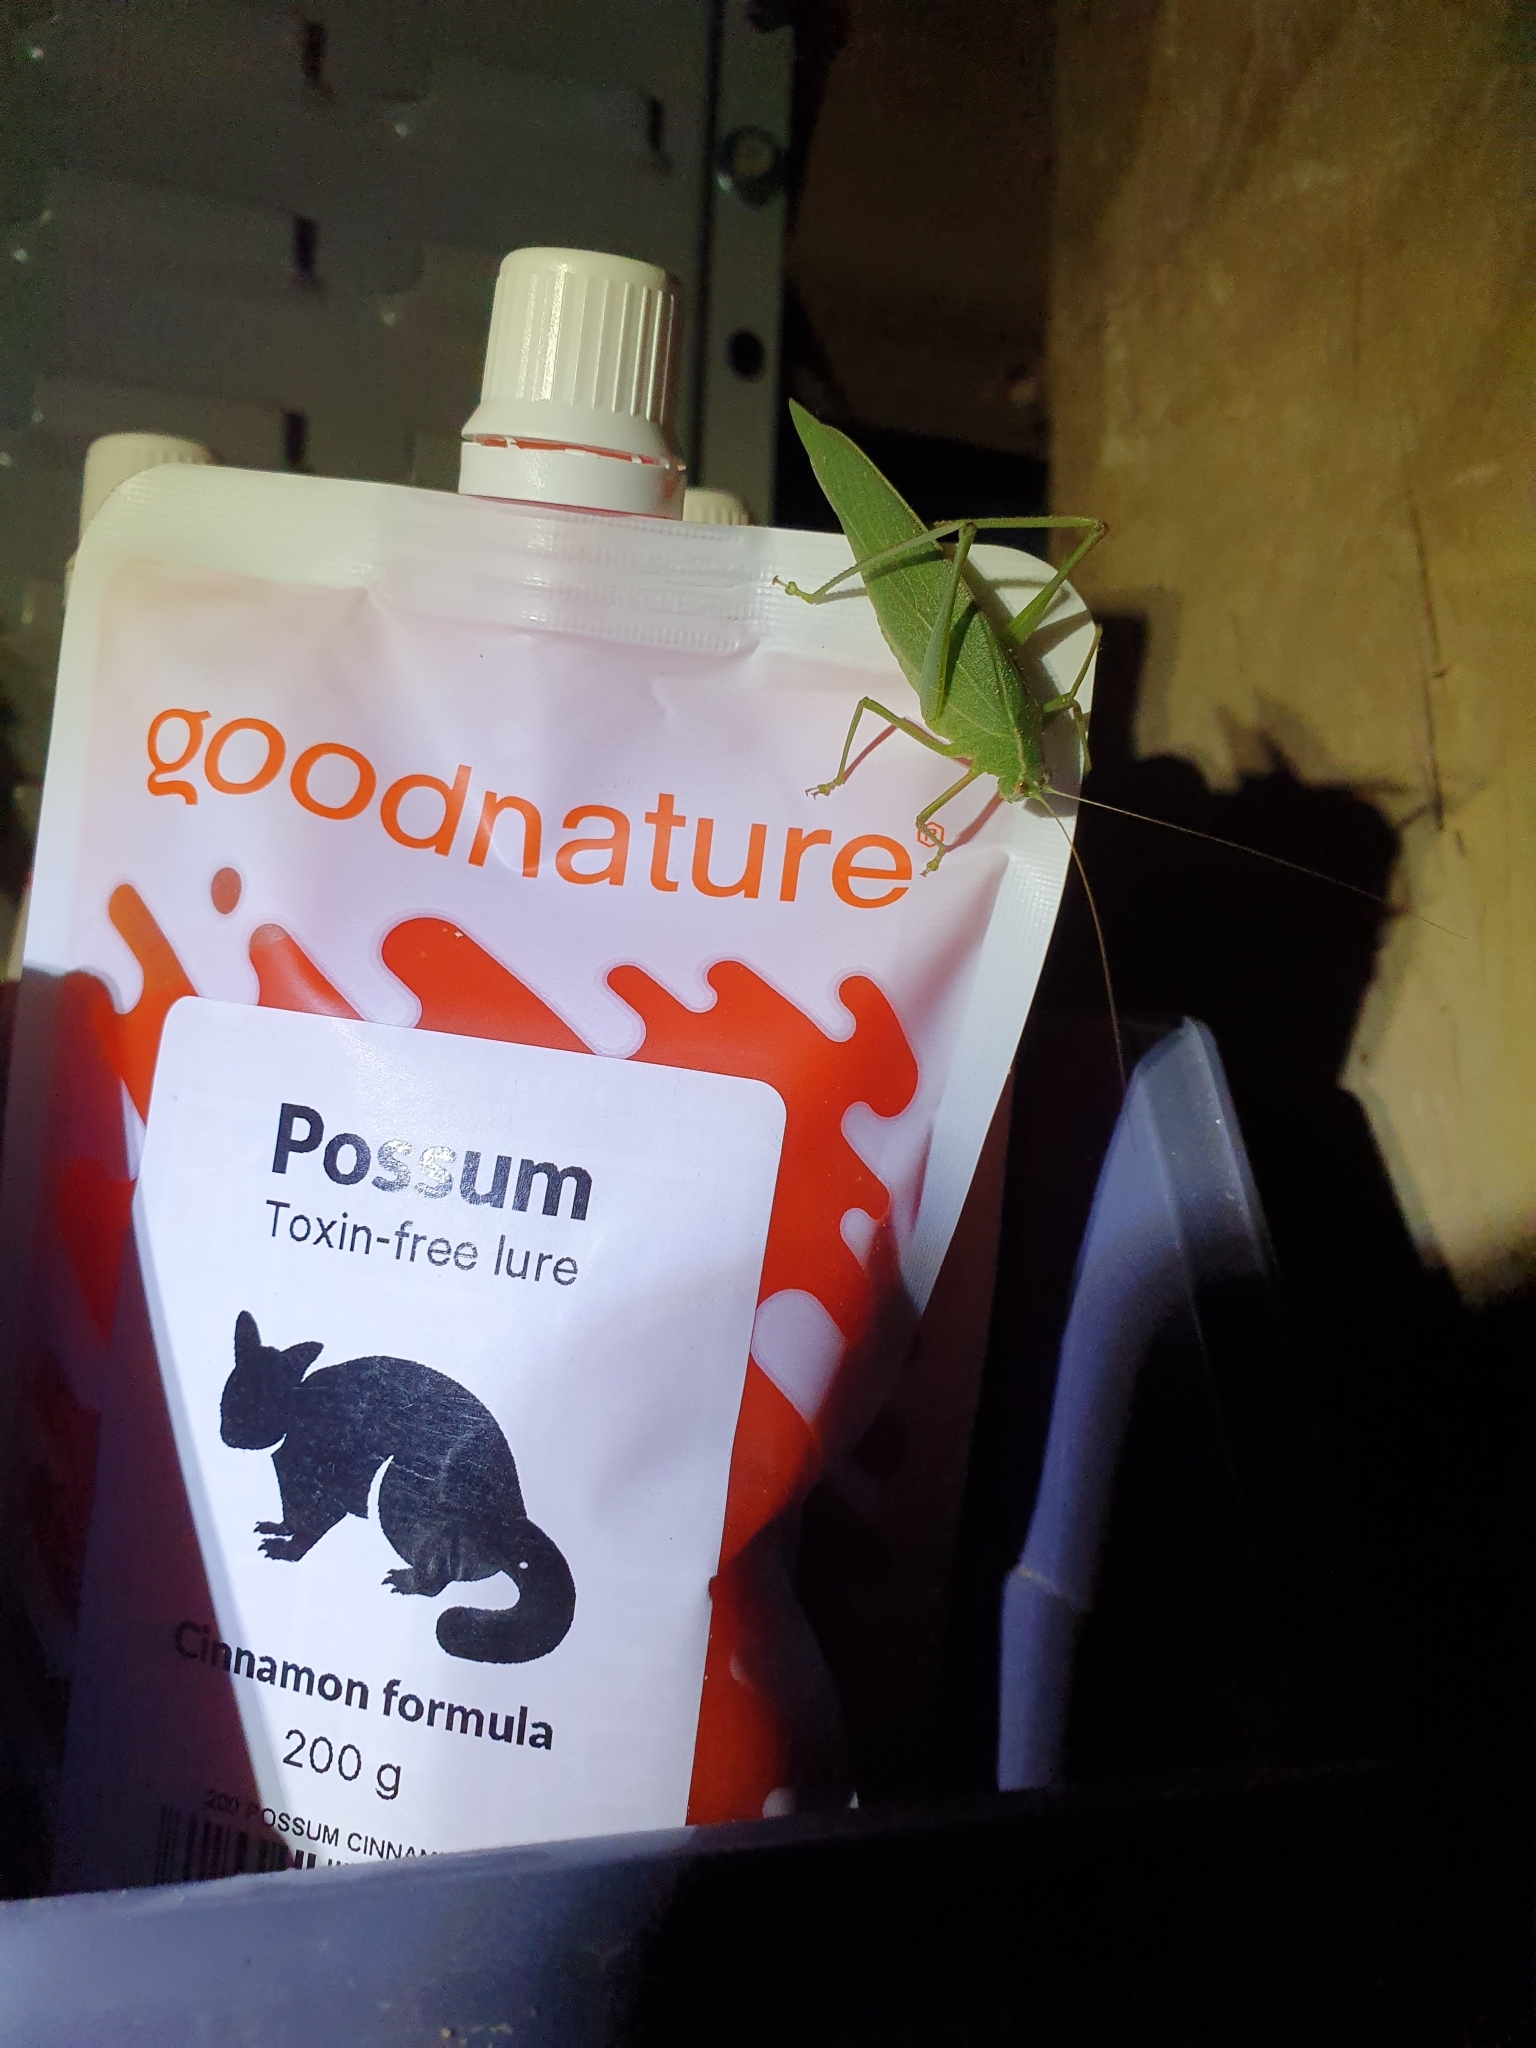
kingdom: Animalia
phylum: Arthropoda
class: Insecta
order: Orthoptera
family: Tettigoniidae
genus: Caedicia
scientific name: Caedicia simplex
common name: Common garden katydid
